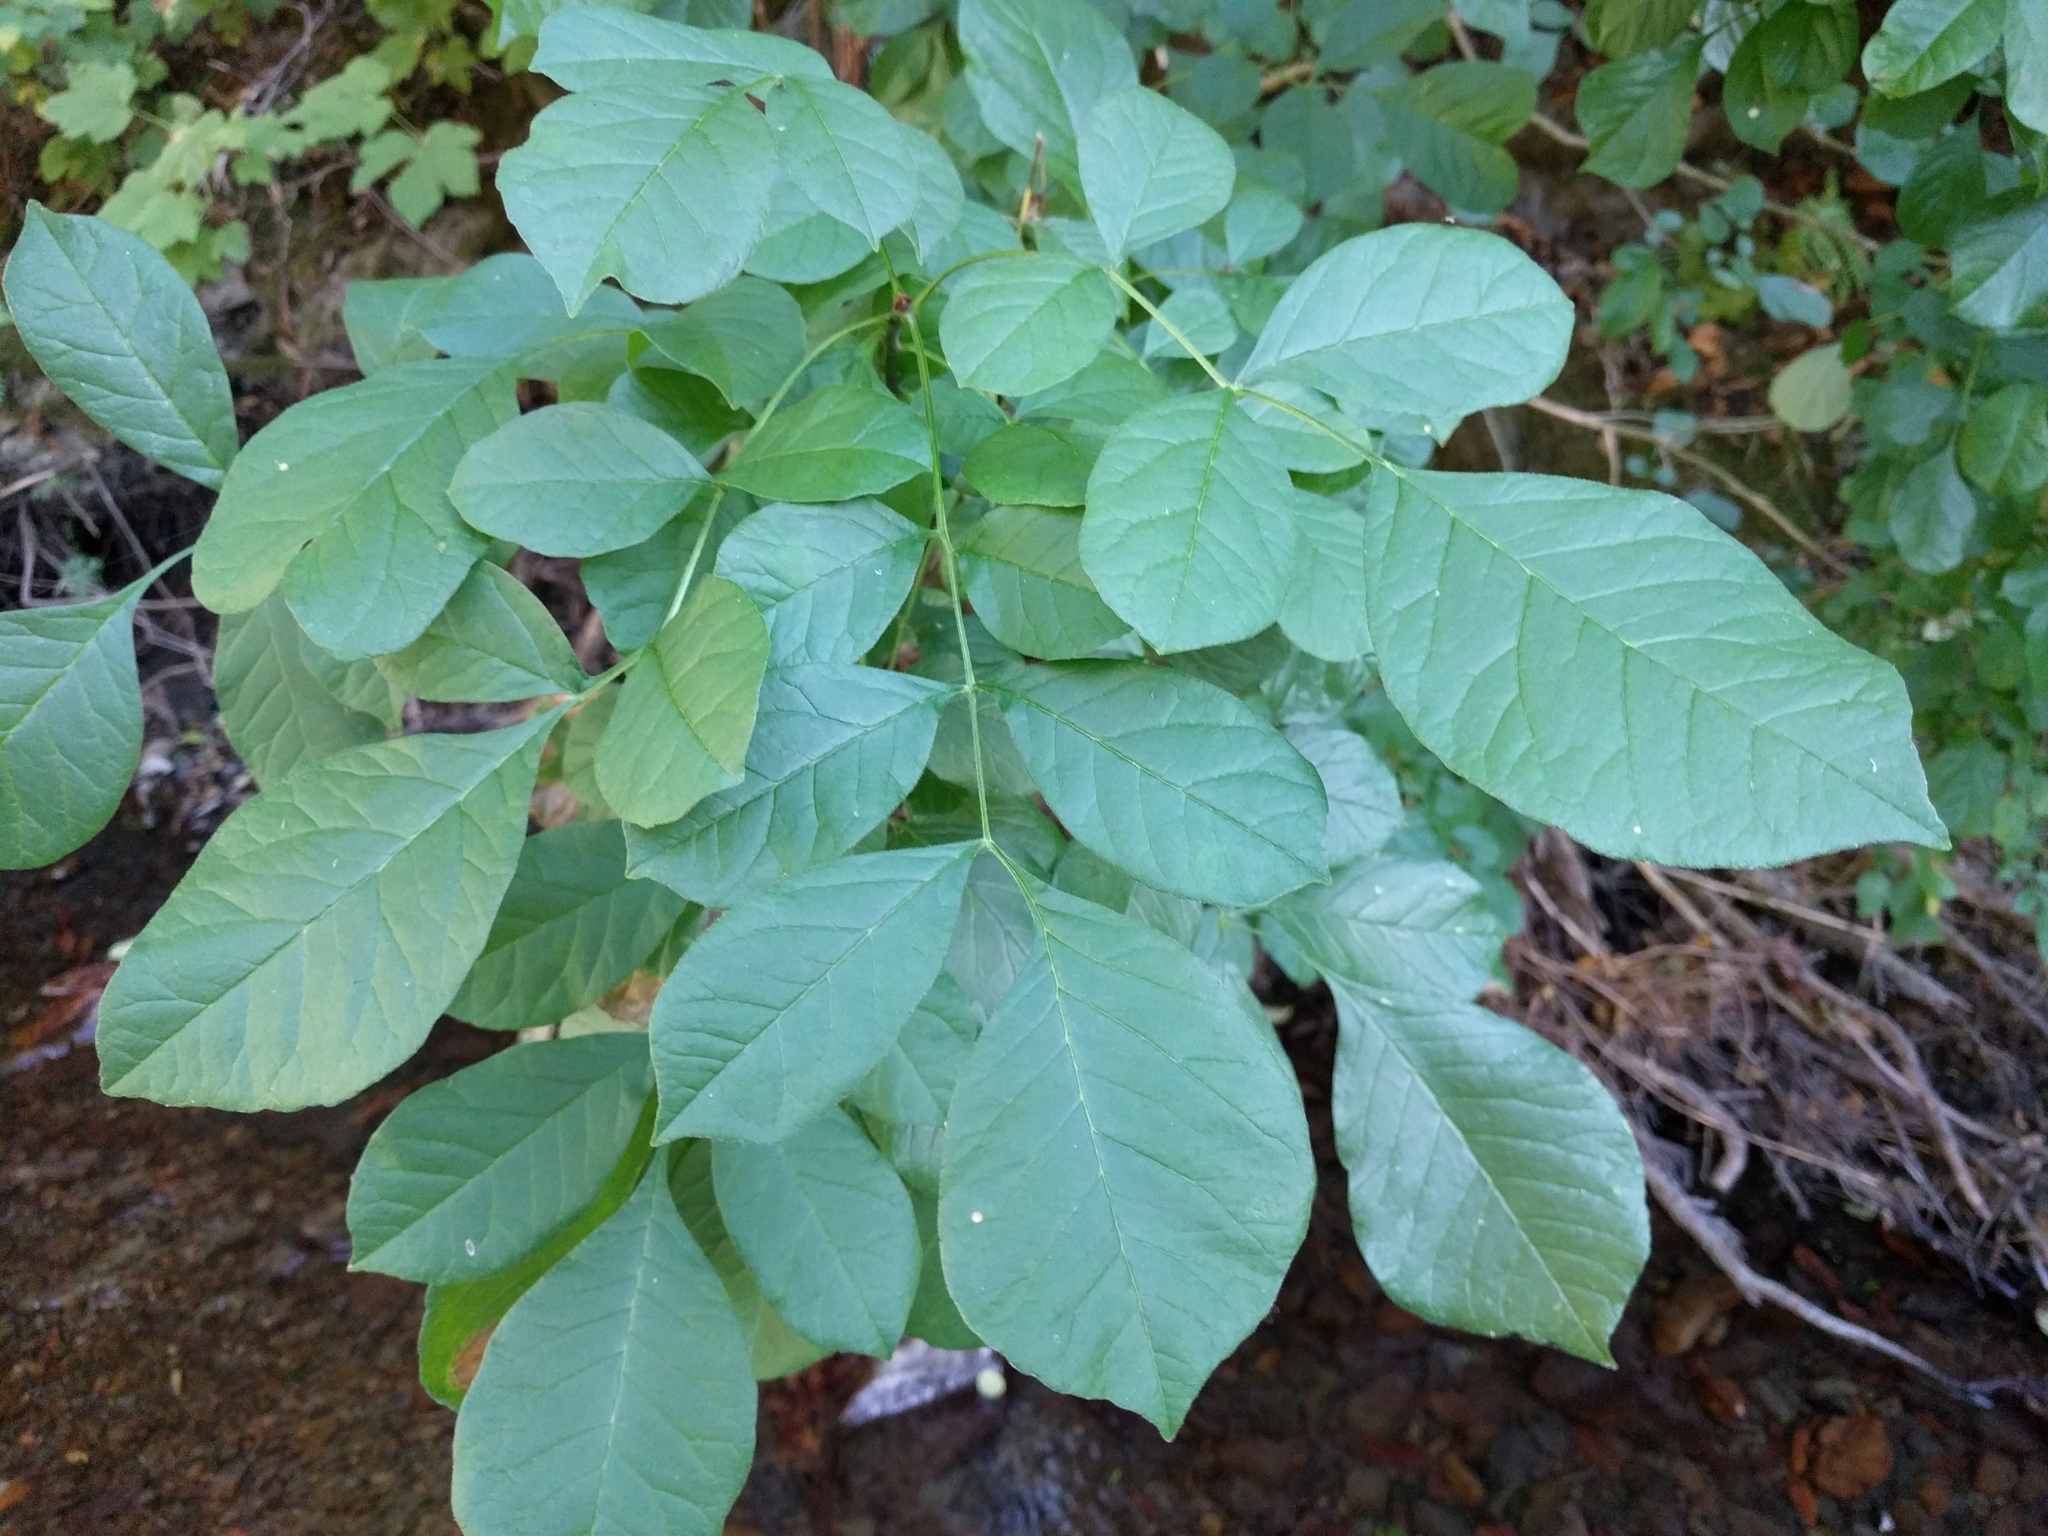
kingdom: Plantae
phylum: Tracheophyta
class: Magnoliopsida
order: Lamiales
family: Oleaceae
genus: Fraxinus
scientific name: Fraxinus latifolia
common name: Oregon ash
